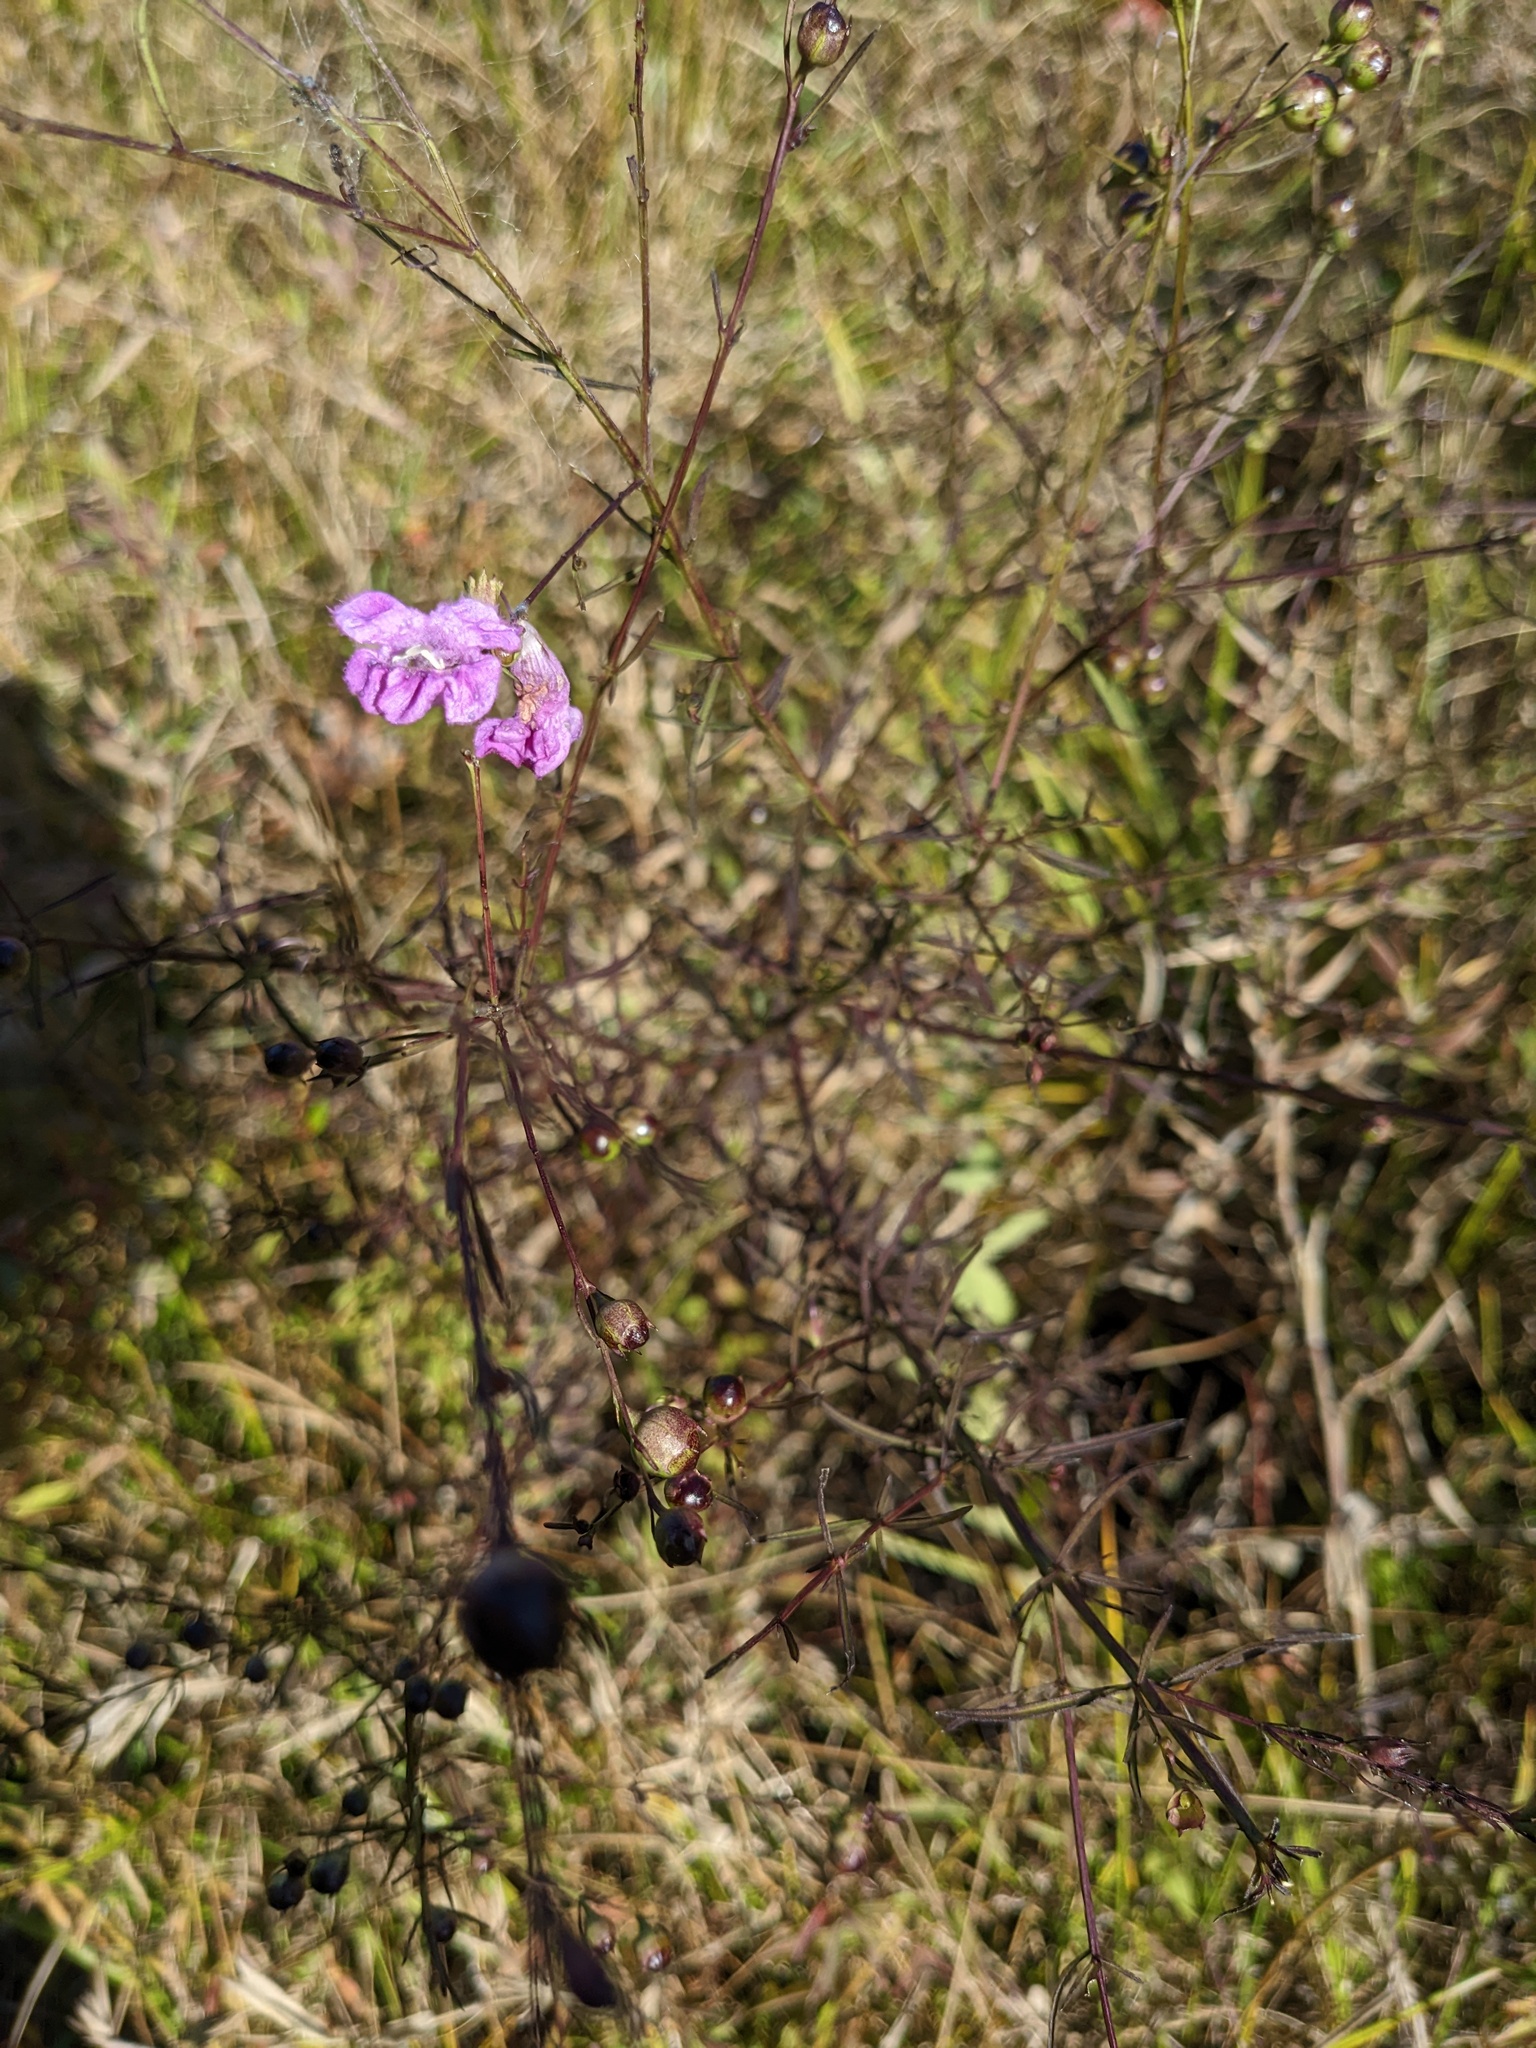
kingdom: Plantae
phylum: Tracheophyta
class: Magnoliopsida
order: Lamiales
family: Orobanchaceae
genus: Agalinis
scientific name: Agalinis purpurea
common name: Purple false foxglove
